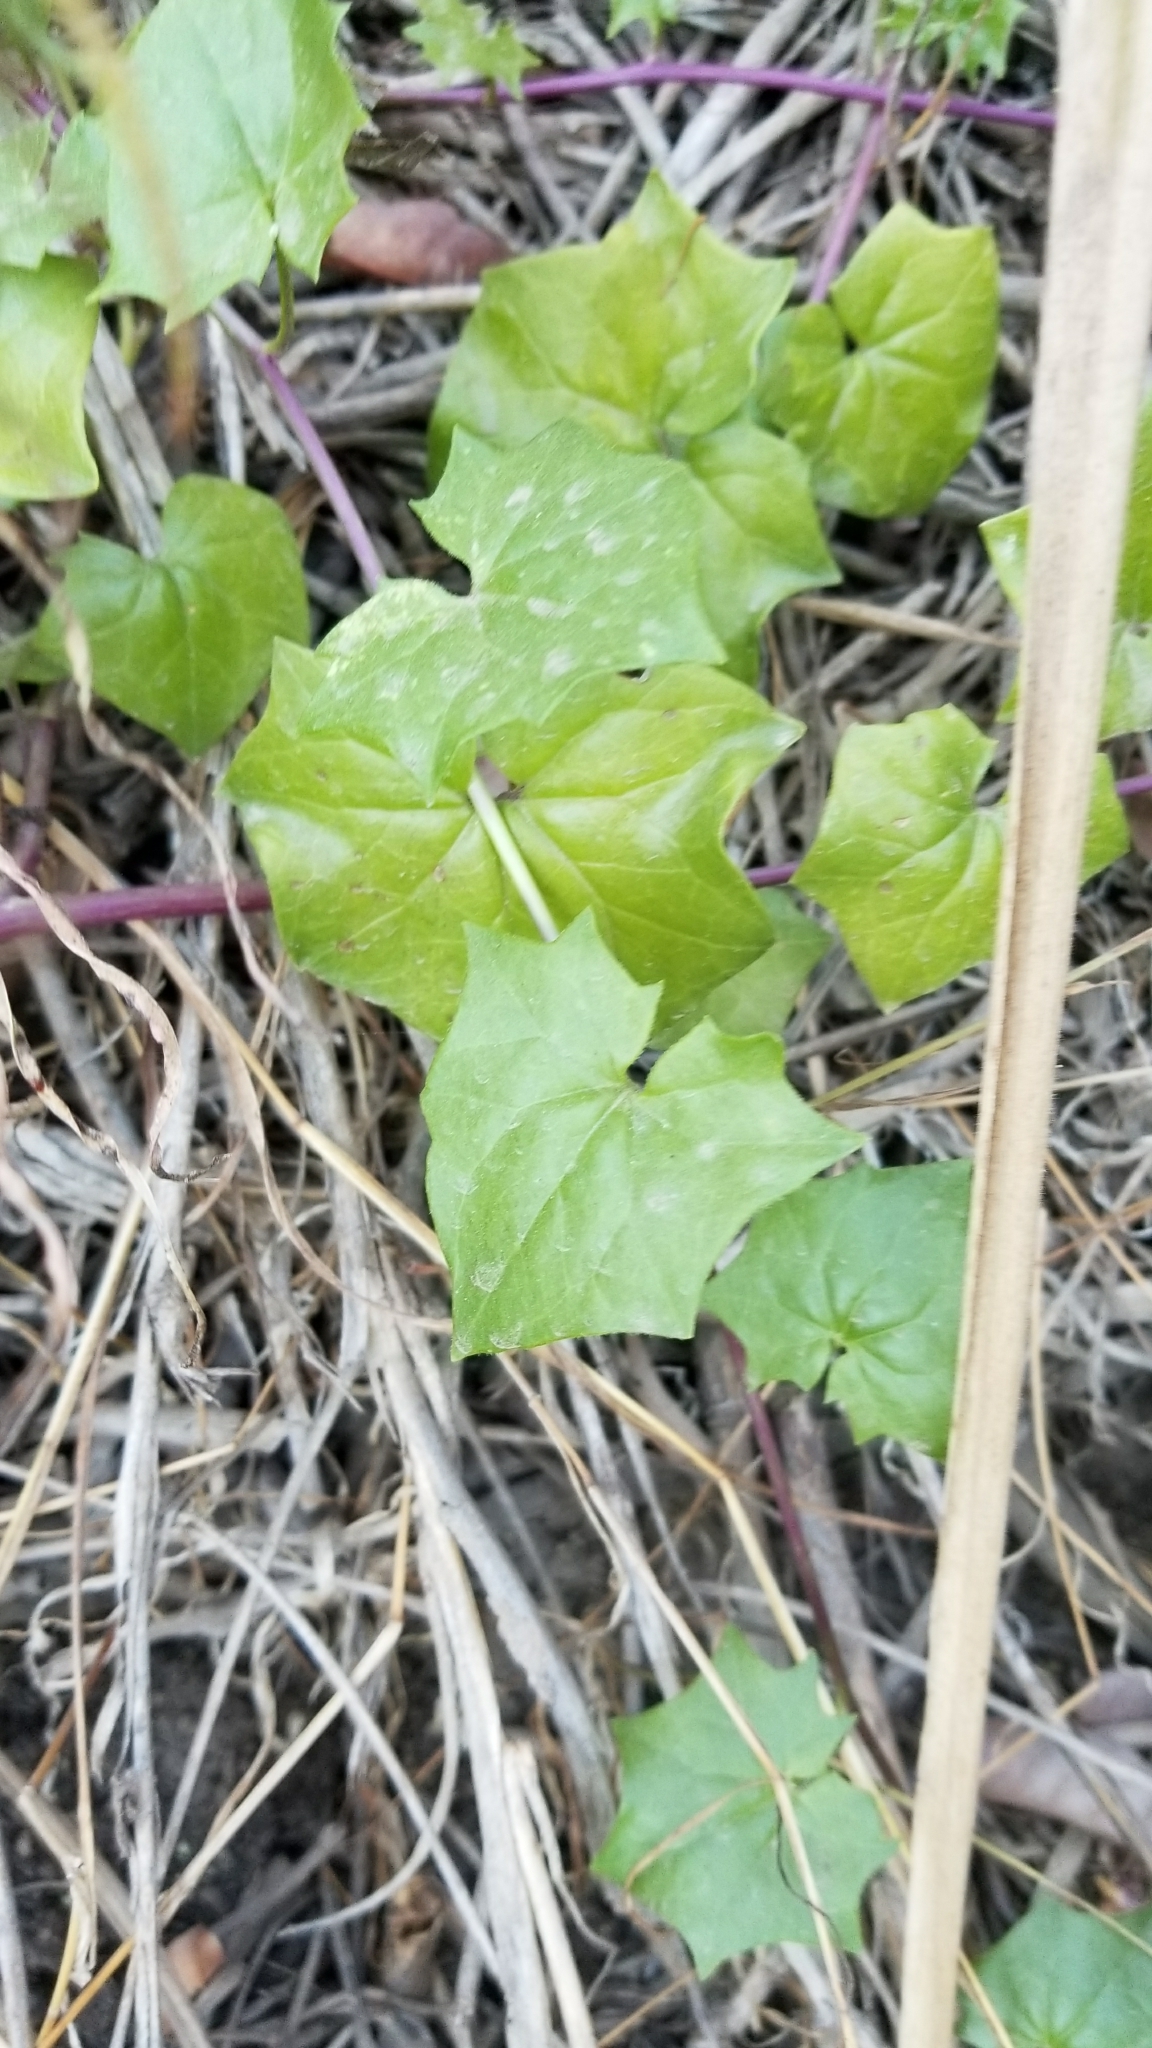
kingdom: Plantae
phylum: Tracheophyta
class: Magnoliopsida
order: Asterales
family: Asteraceae
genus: Delairea
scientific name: Delairea odorata
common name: Cape-ivy
